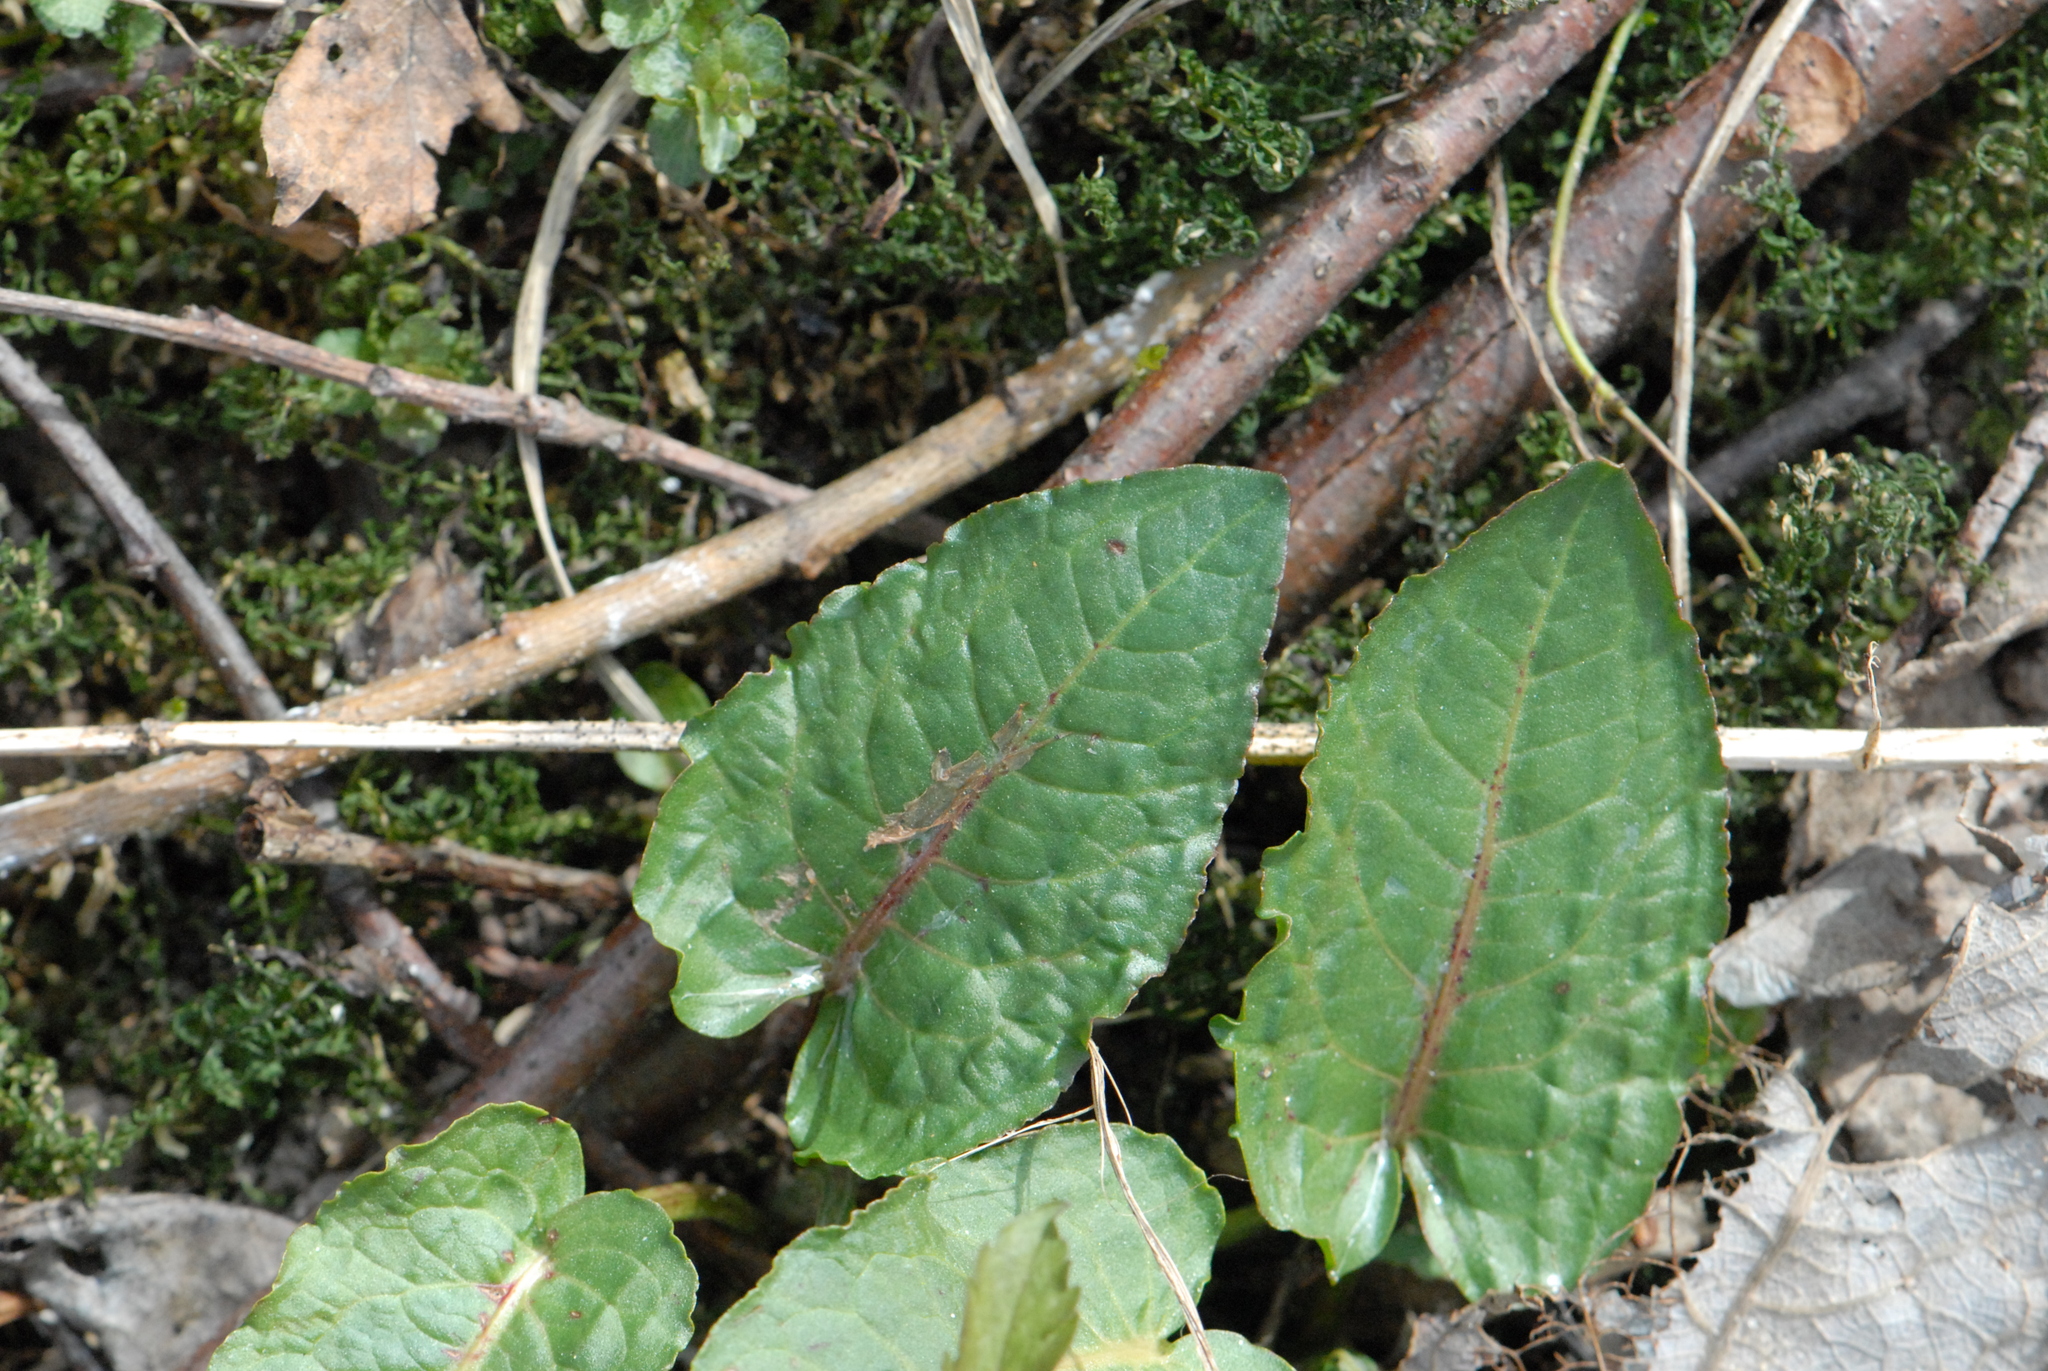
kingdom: Plantae
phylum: Tracheophyta
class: Magnoliopsida
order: Caryophyllales
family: Polygonaceae
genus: Rumex
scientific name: Rumex obtusifolius
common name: Bitter dock
